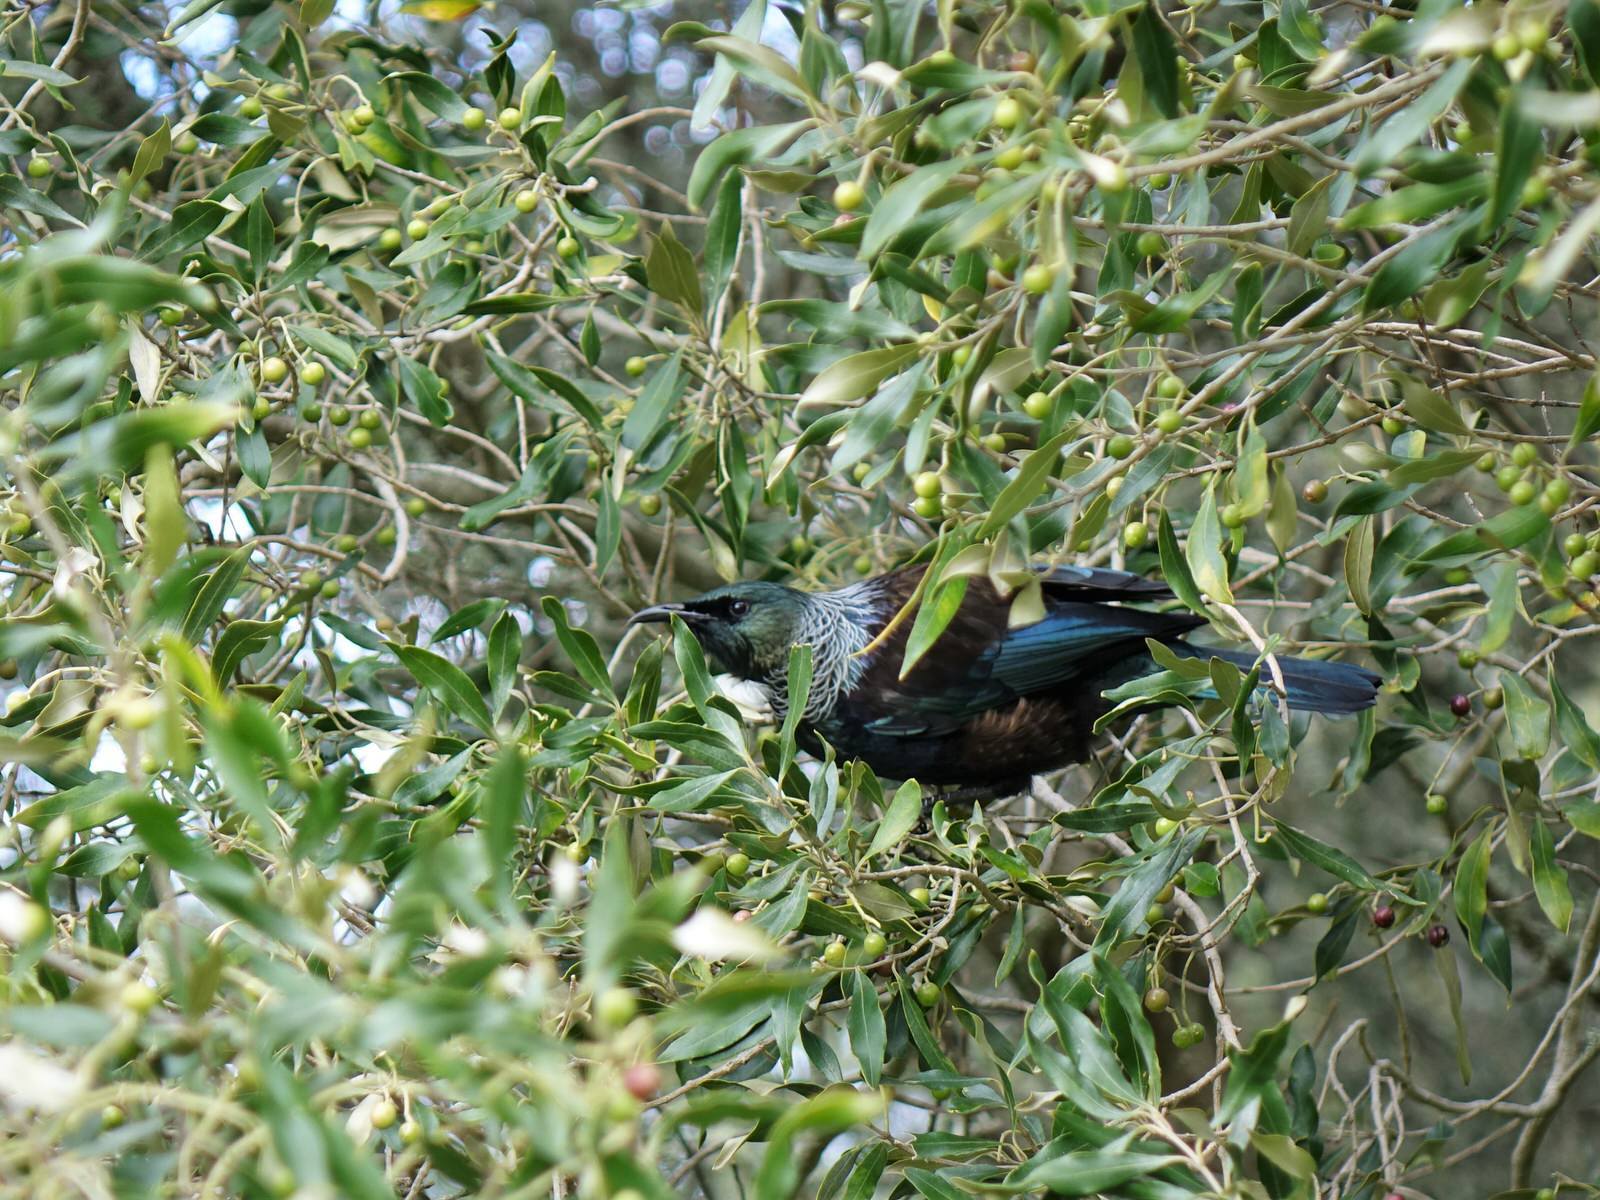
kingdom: Animalia
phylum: Chordata
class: Aves
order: Passeriformes
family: Meliphagidae
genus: Prosthemadera
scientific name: Prosthemadera novaeseelandiae
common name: Tui
